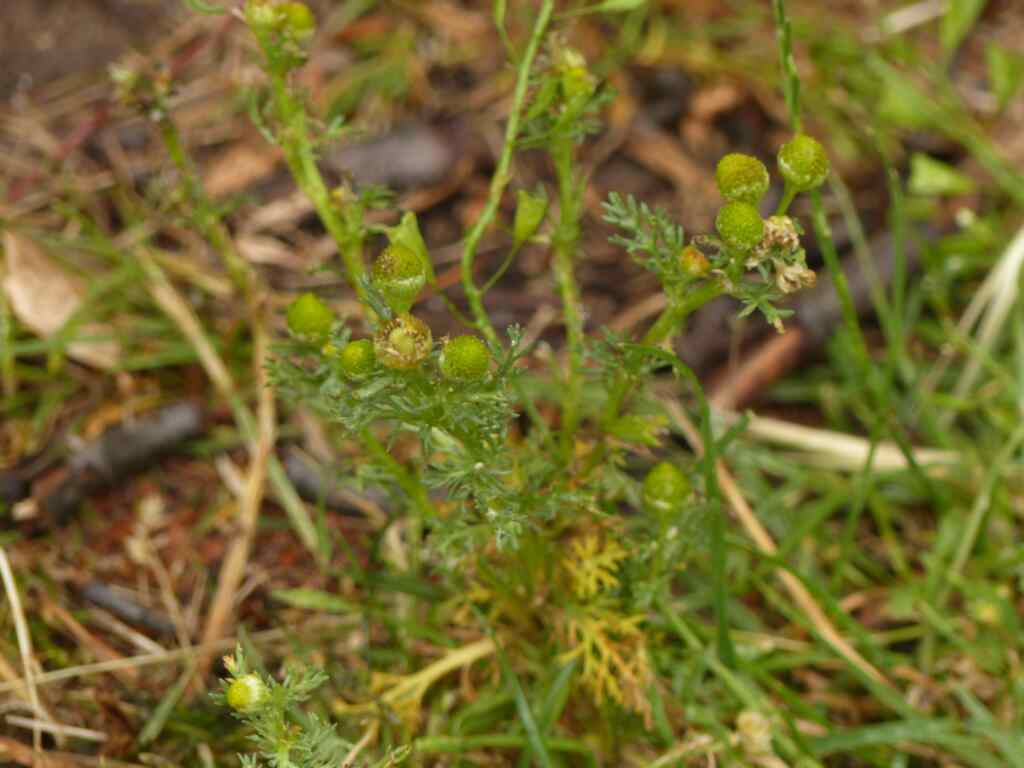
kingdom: Plantae
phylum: Tracheophyta
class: Magnoliopsida
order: Asterales
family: Asteraceae
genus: Matricaria
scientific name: Matricaria discoidea
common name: Disc mayweed
